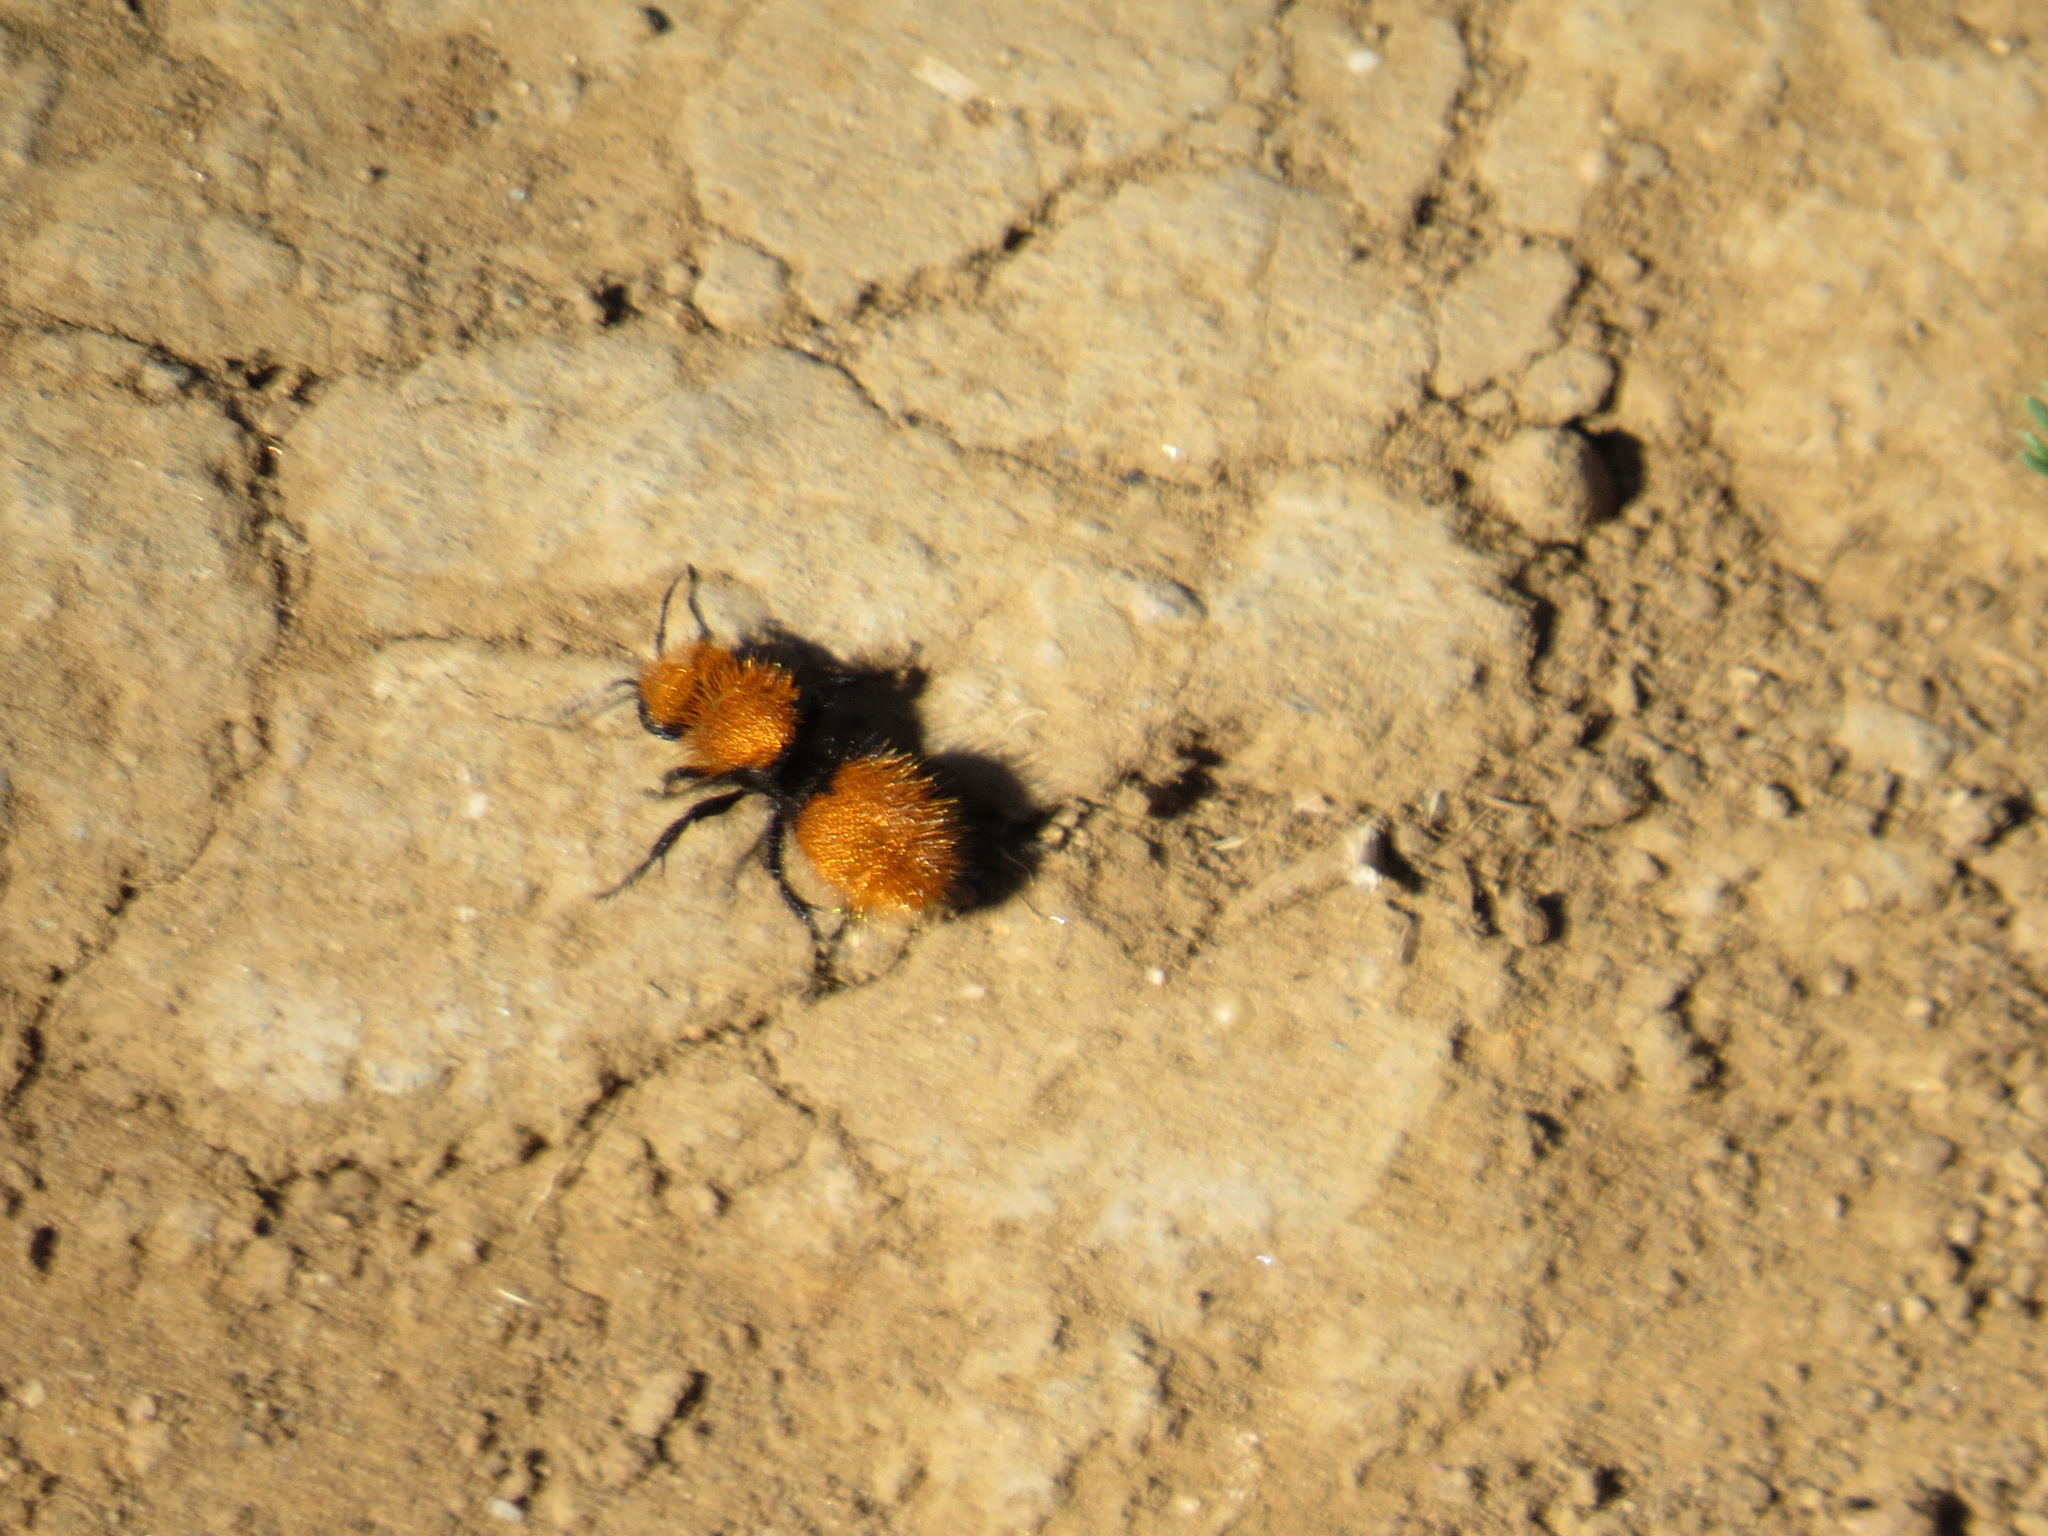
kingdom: Animalia
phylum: Arthropoda
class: Insecta
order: Hymenoptera
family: Mutillidae
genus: Dasymutilla
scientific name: Dasymutilla
